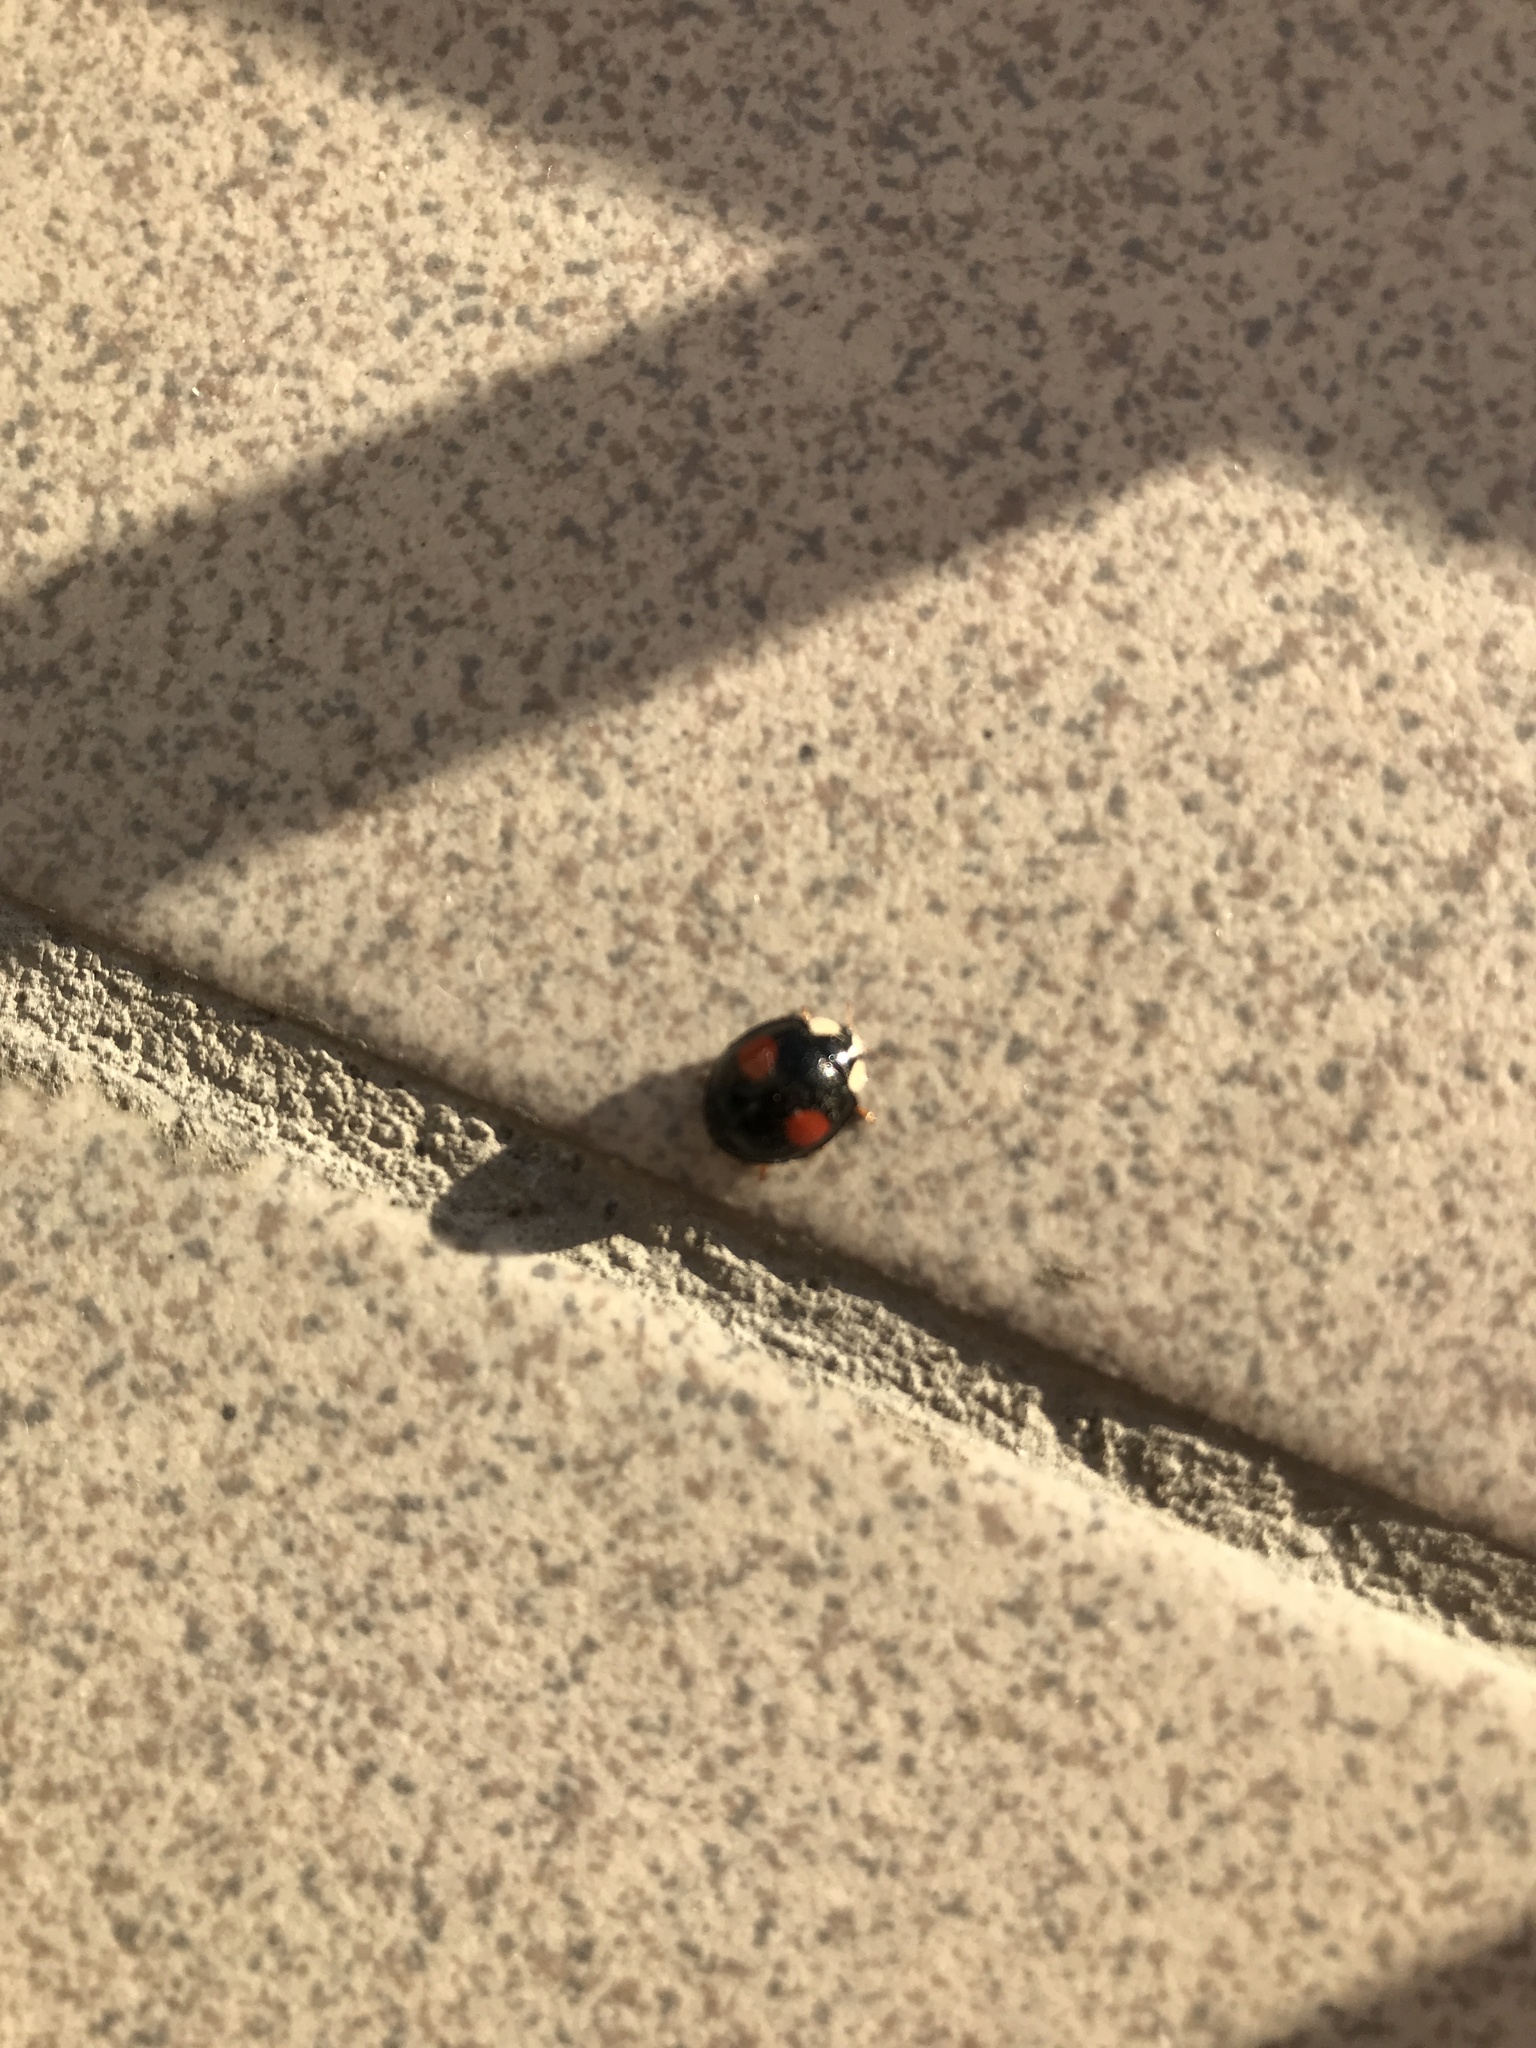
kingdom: Animalia
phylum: Arthropoda
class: Insecta
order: Coleoptera
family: Coccinellidae
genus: Harmonia
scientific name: Harmonia axyridis
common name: Harlequin ladybird
